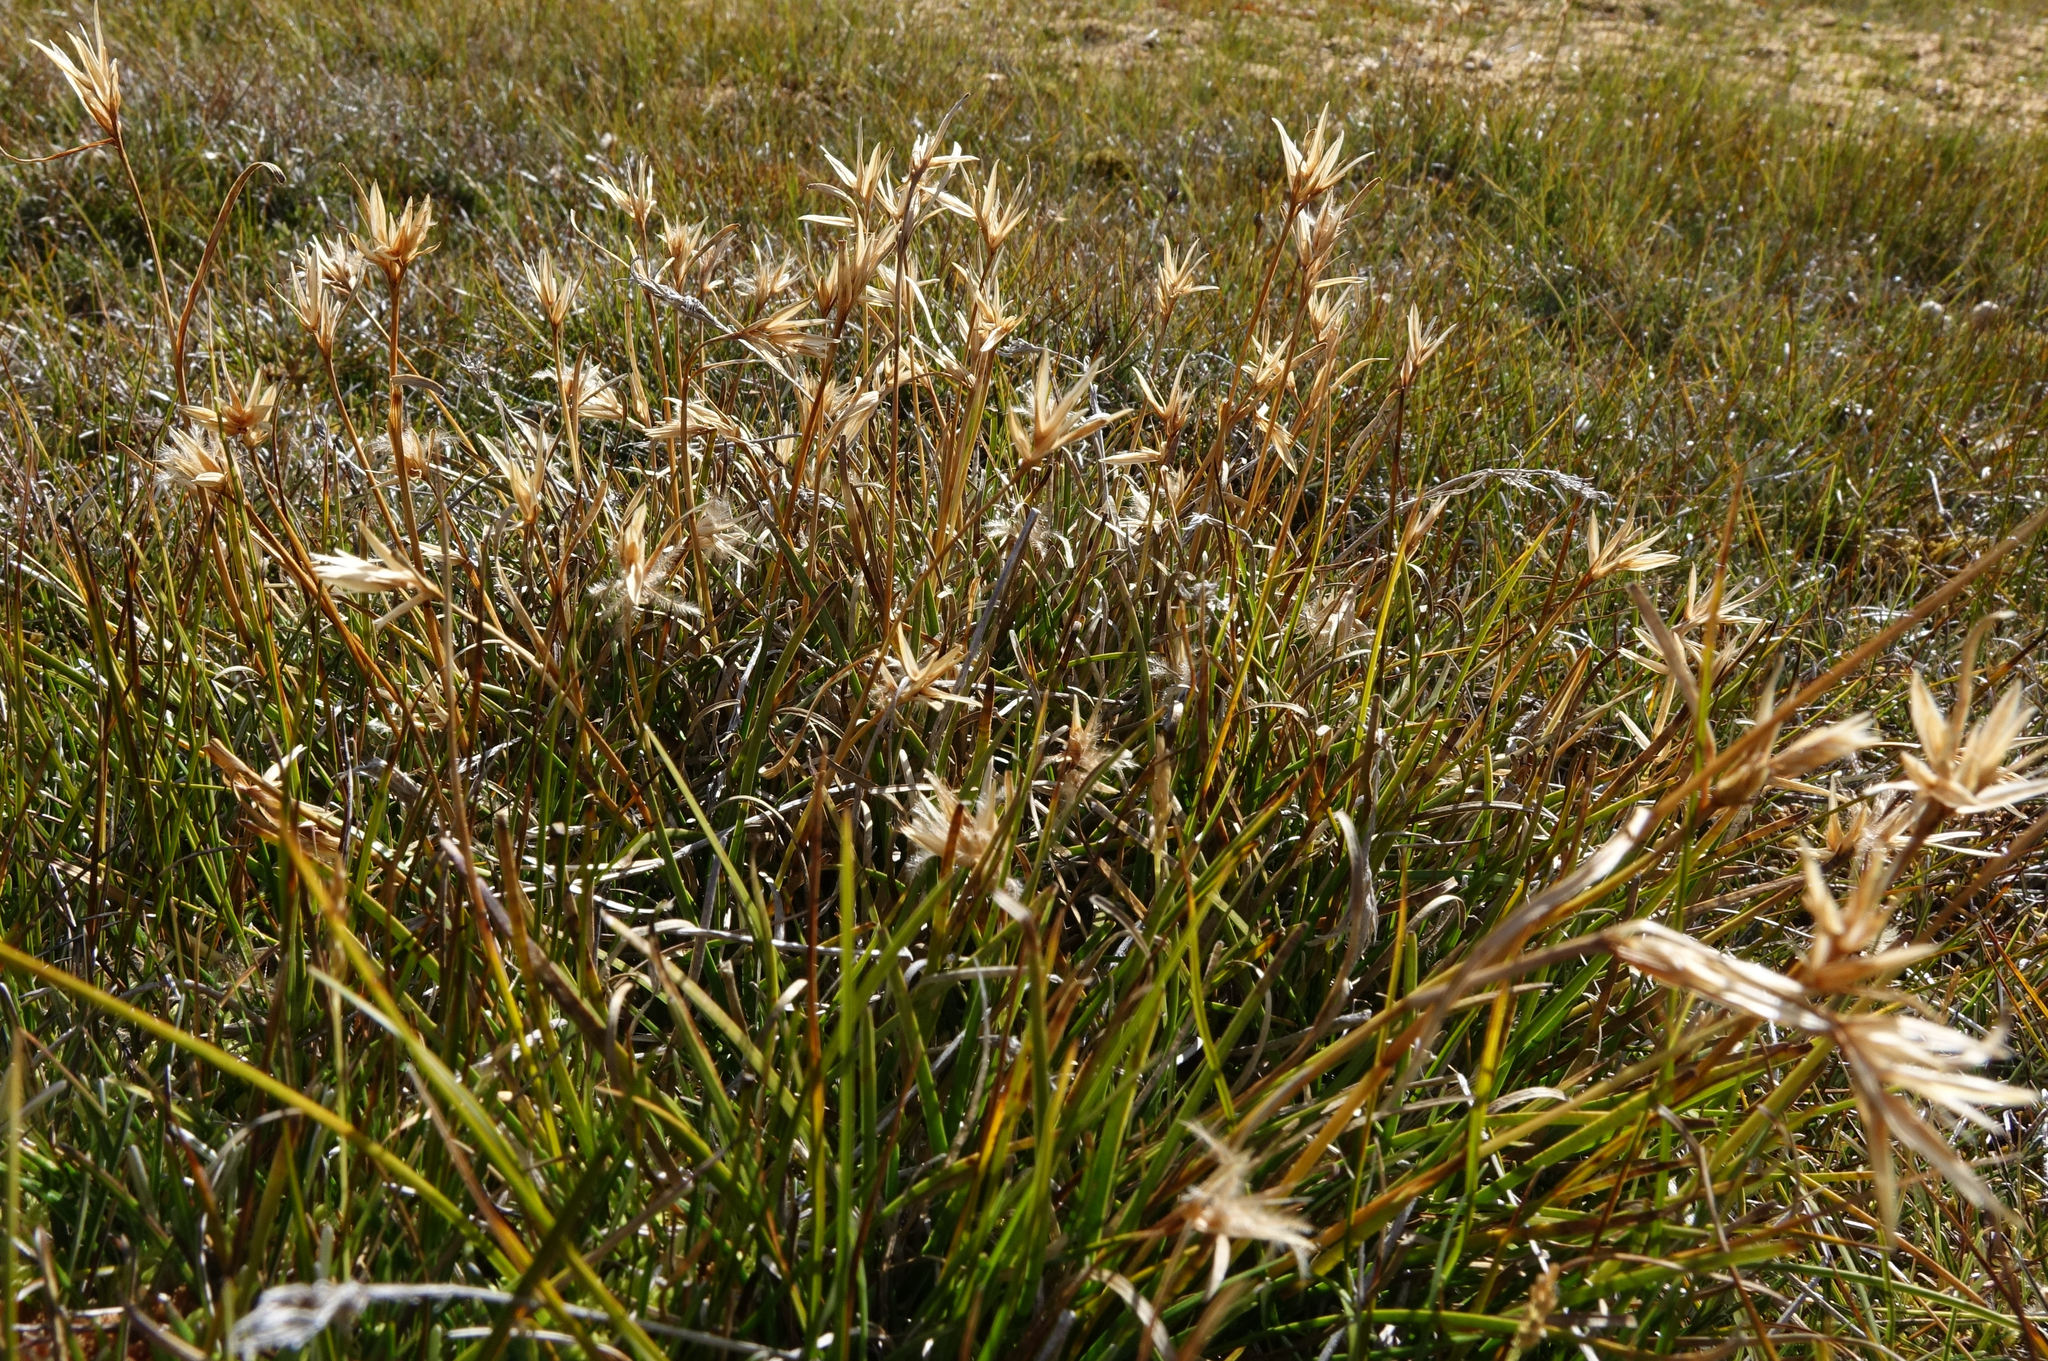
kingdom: Plantae
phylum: Tracheophyta
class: Liliopsida
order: Poales
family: Cyperaceae
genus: Carpha
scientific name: Carpha alpina
